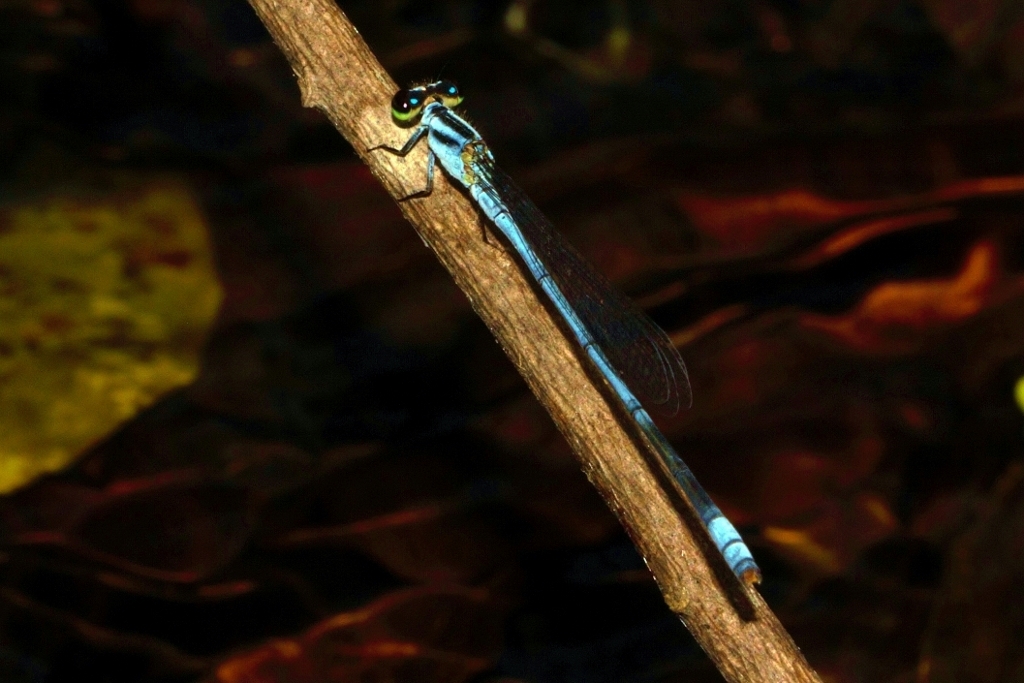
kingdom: Animalia
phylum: Arthropoda
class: Insecta
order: Odonata
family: Coenagrionidae
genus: Pseudagrion
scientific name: Pseudagrion kersteni
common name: Powder-faced sprite
